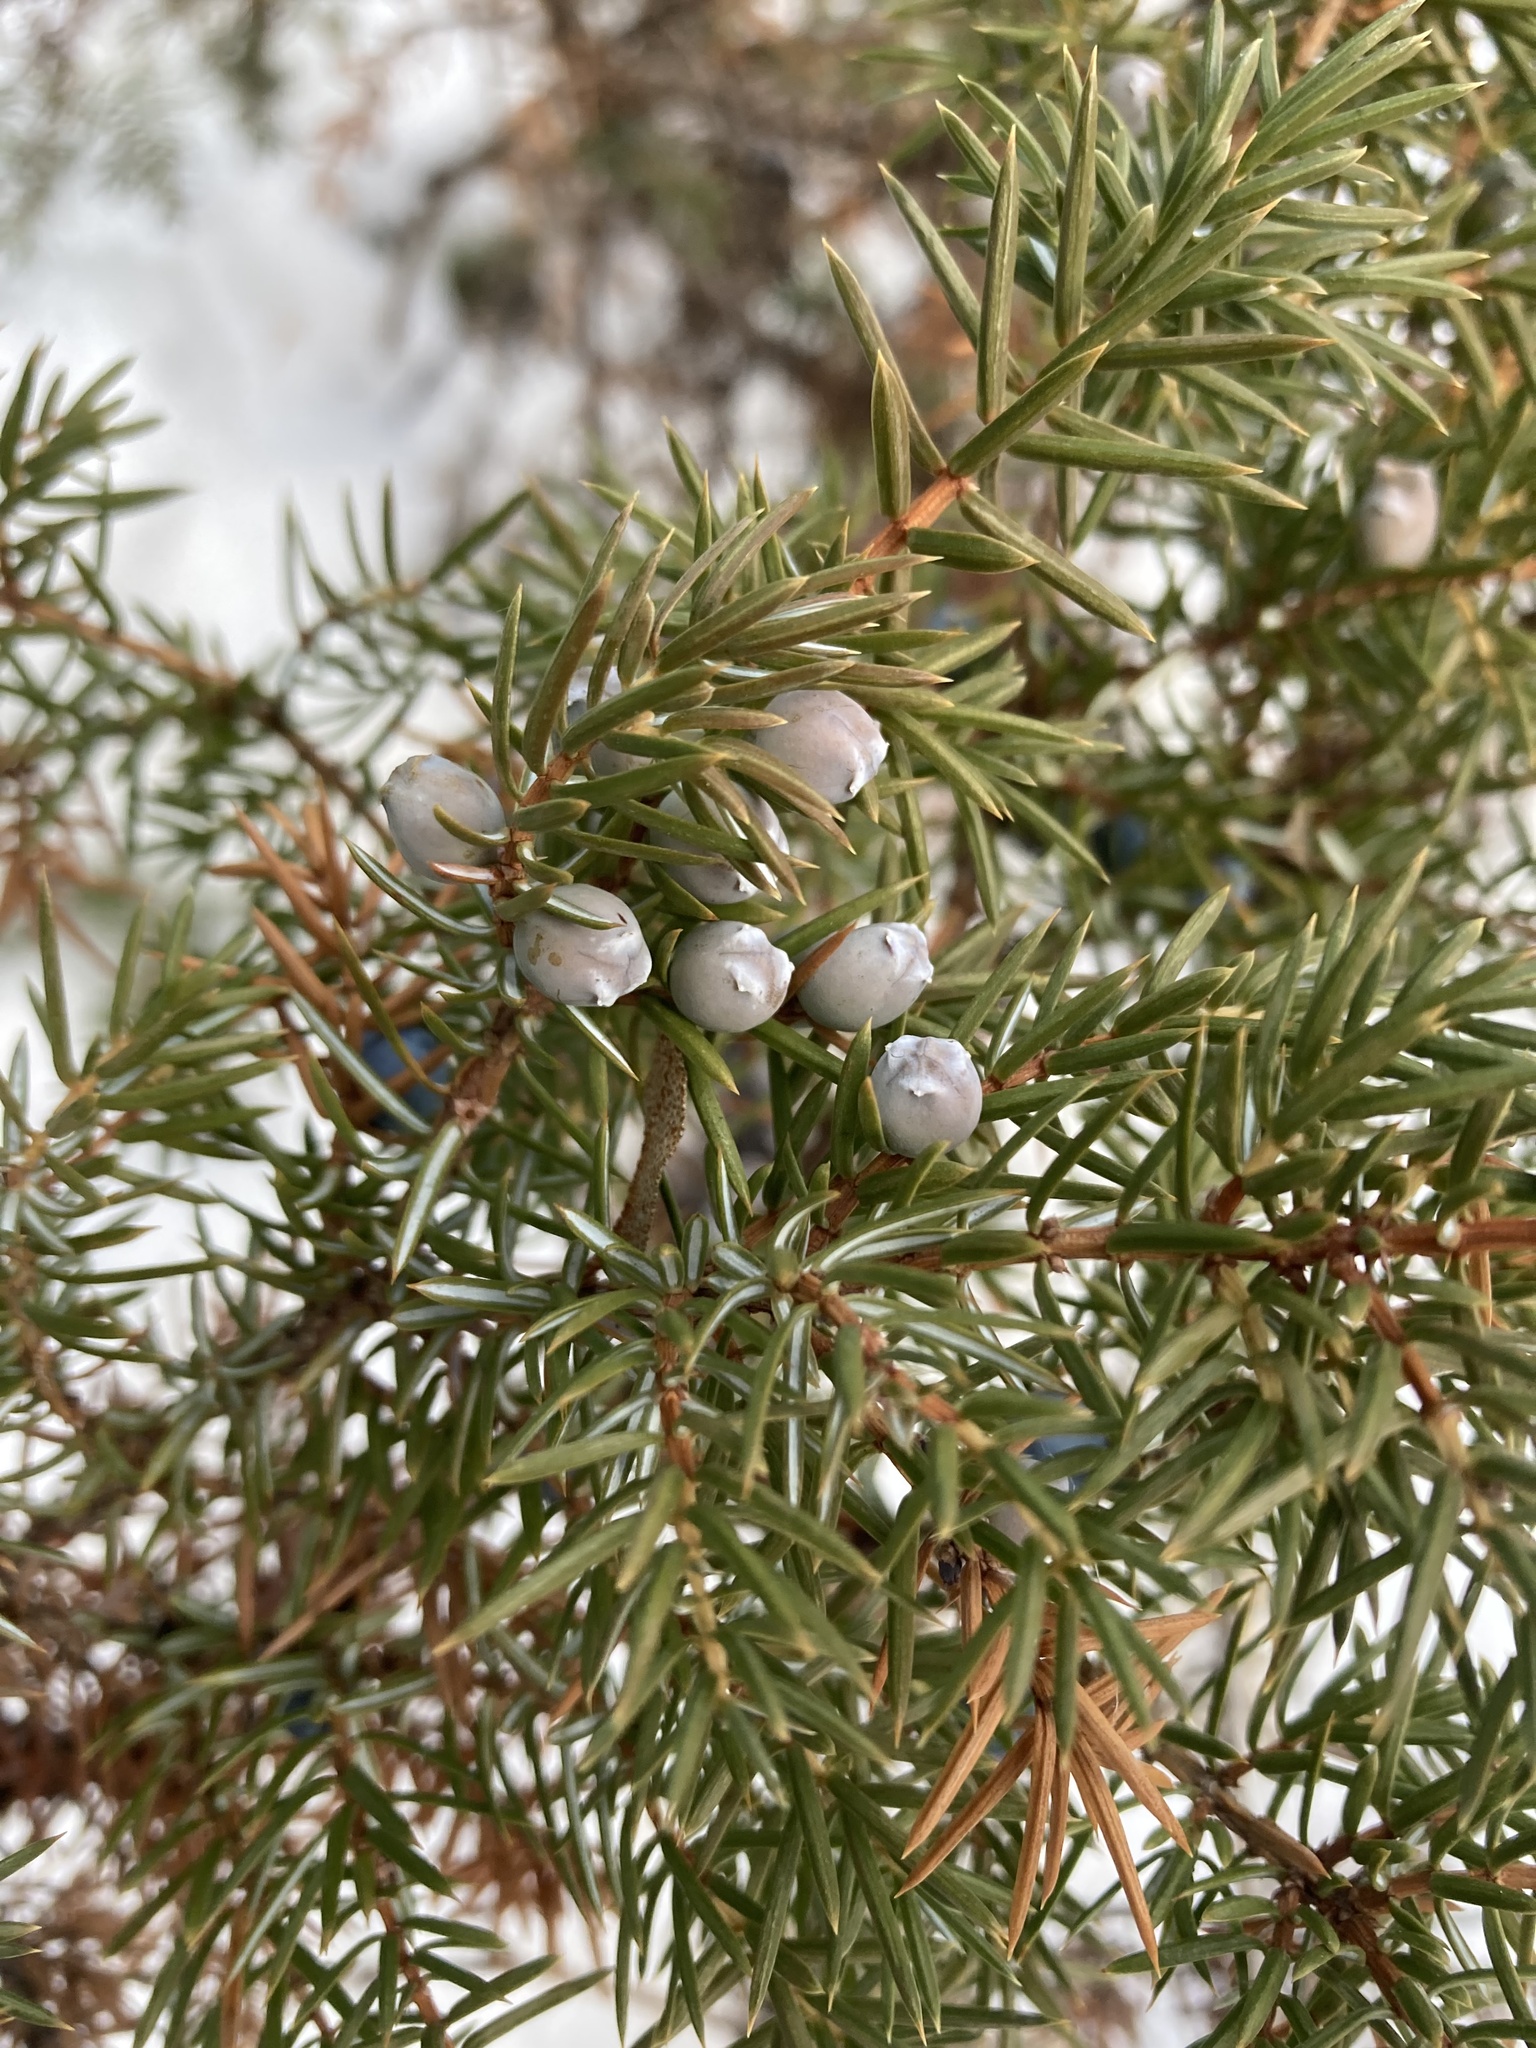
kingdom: Plantae
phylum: Tracheophyta
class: Pinopsida
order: Pinales
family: Cupressaceae
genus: Juniperus
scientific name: Juniperus communis
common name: Common juniper
